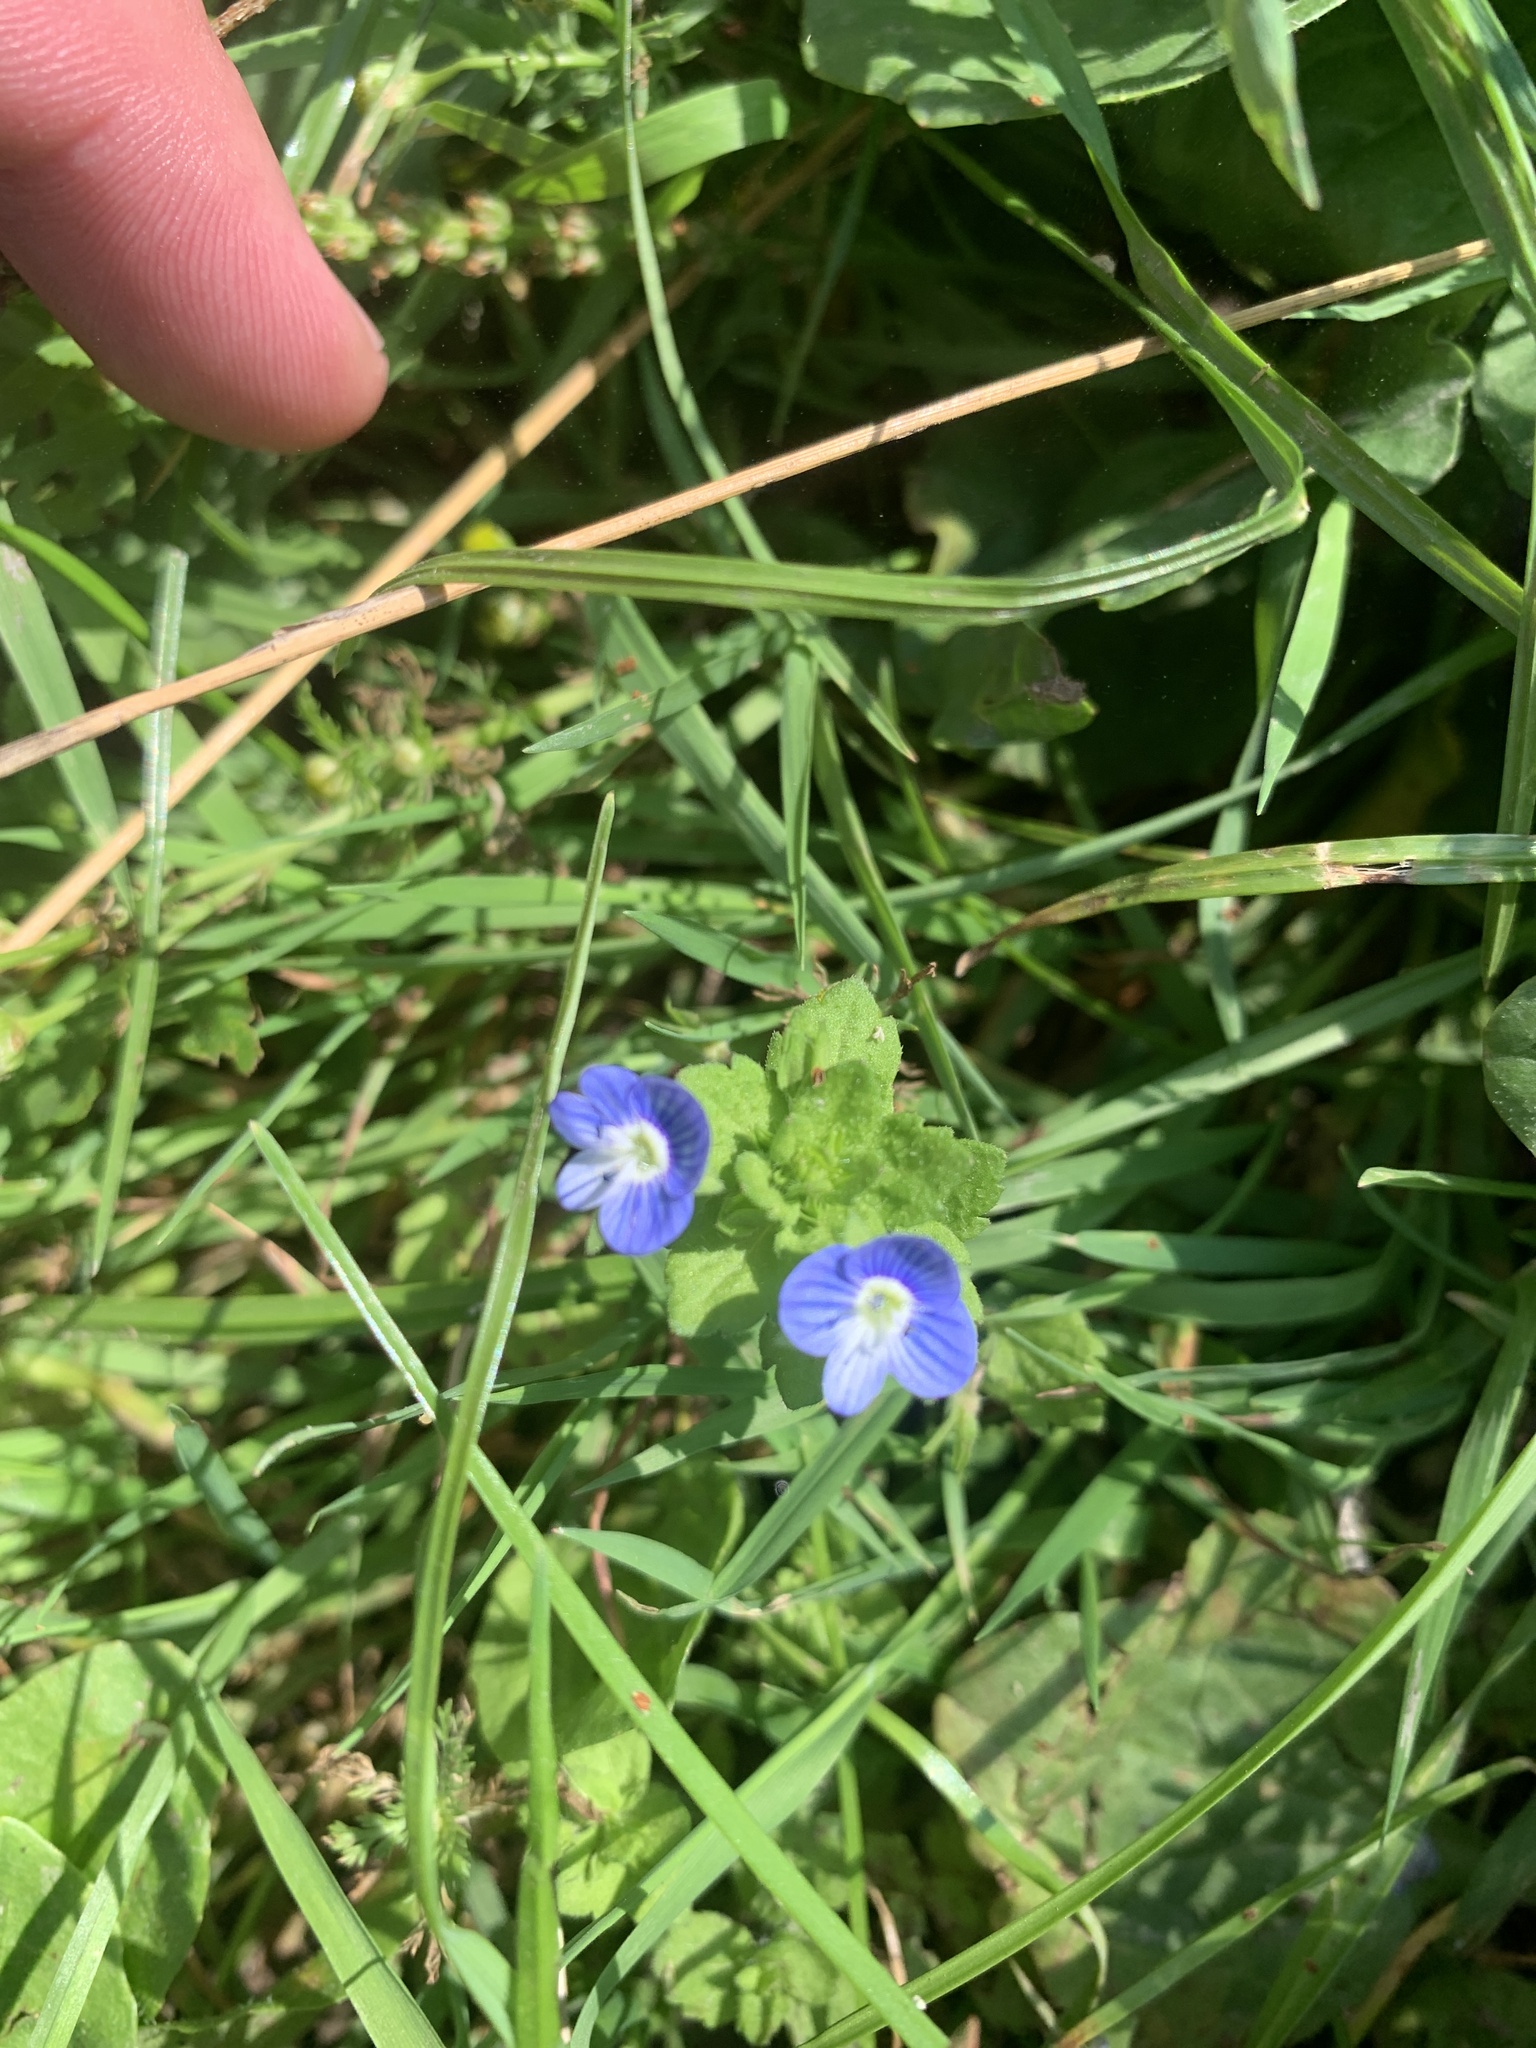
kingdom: Plantae
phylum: Tracheophyta
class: Magnoliopsida
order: Lamiales
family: Plantaginaceae
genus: Veronica
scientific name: Veronica persica
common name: Common field-speedwell
